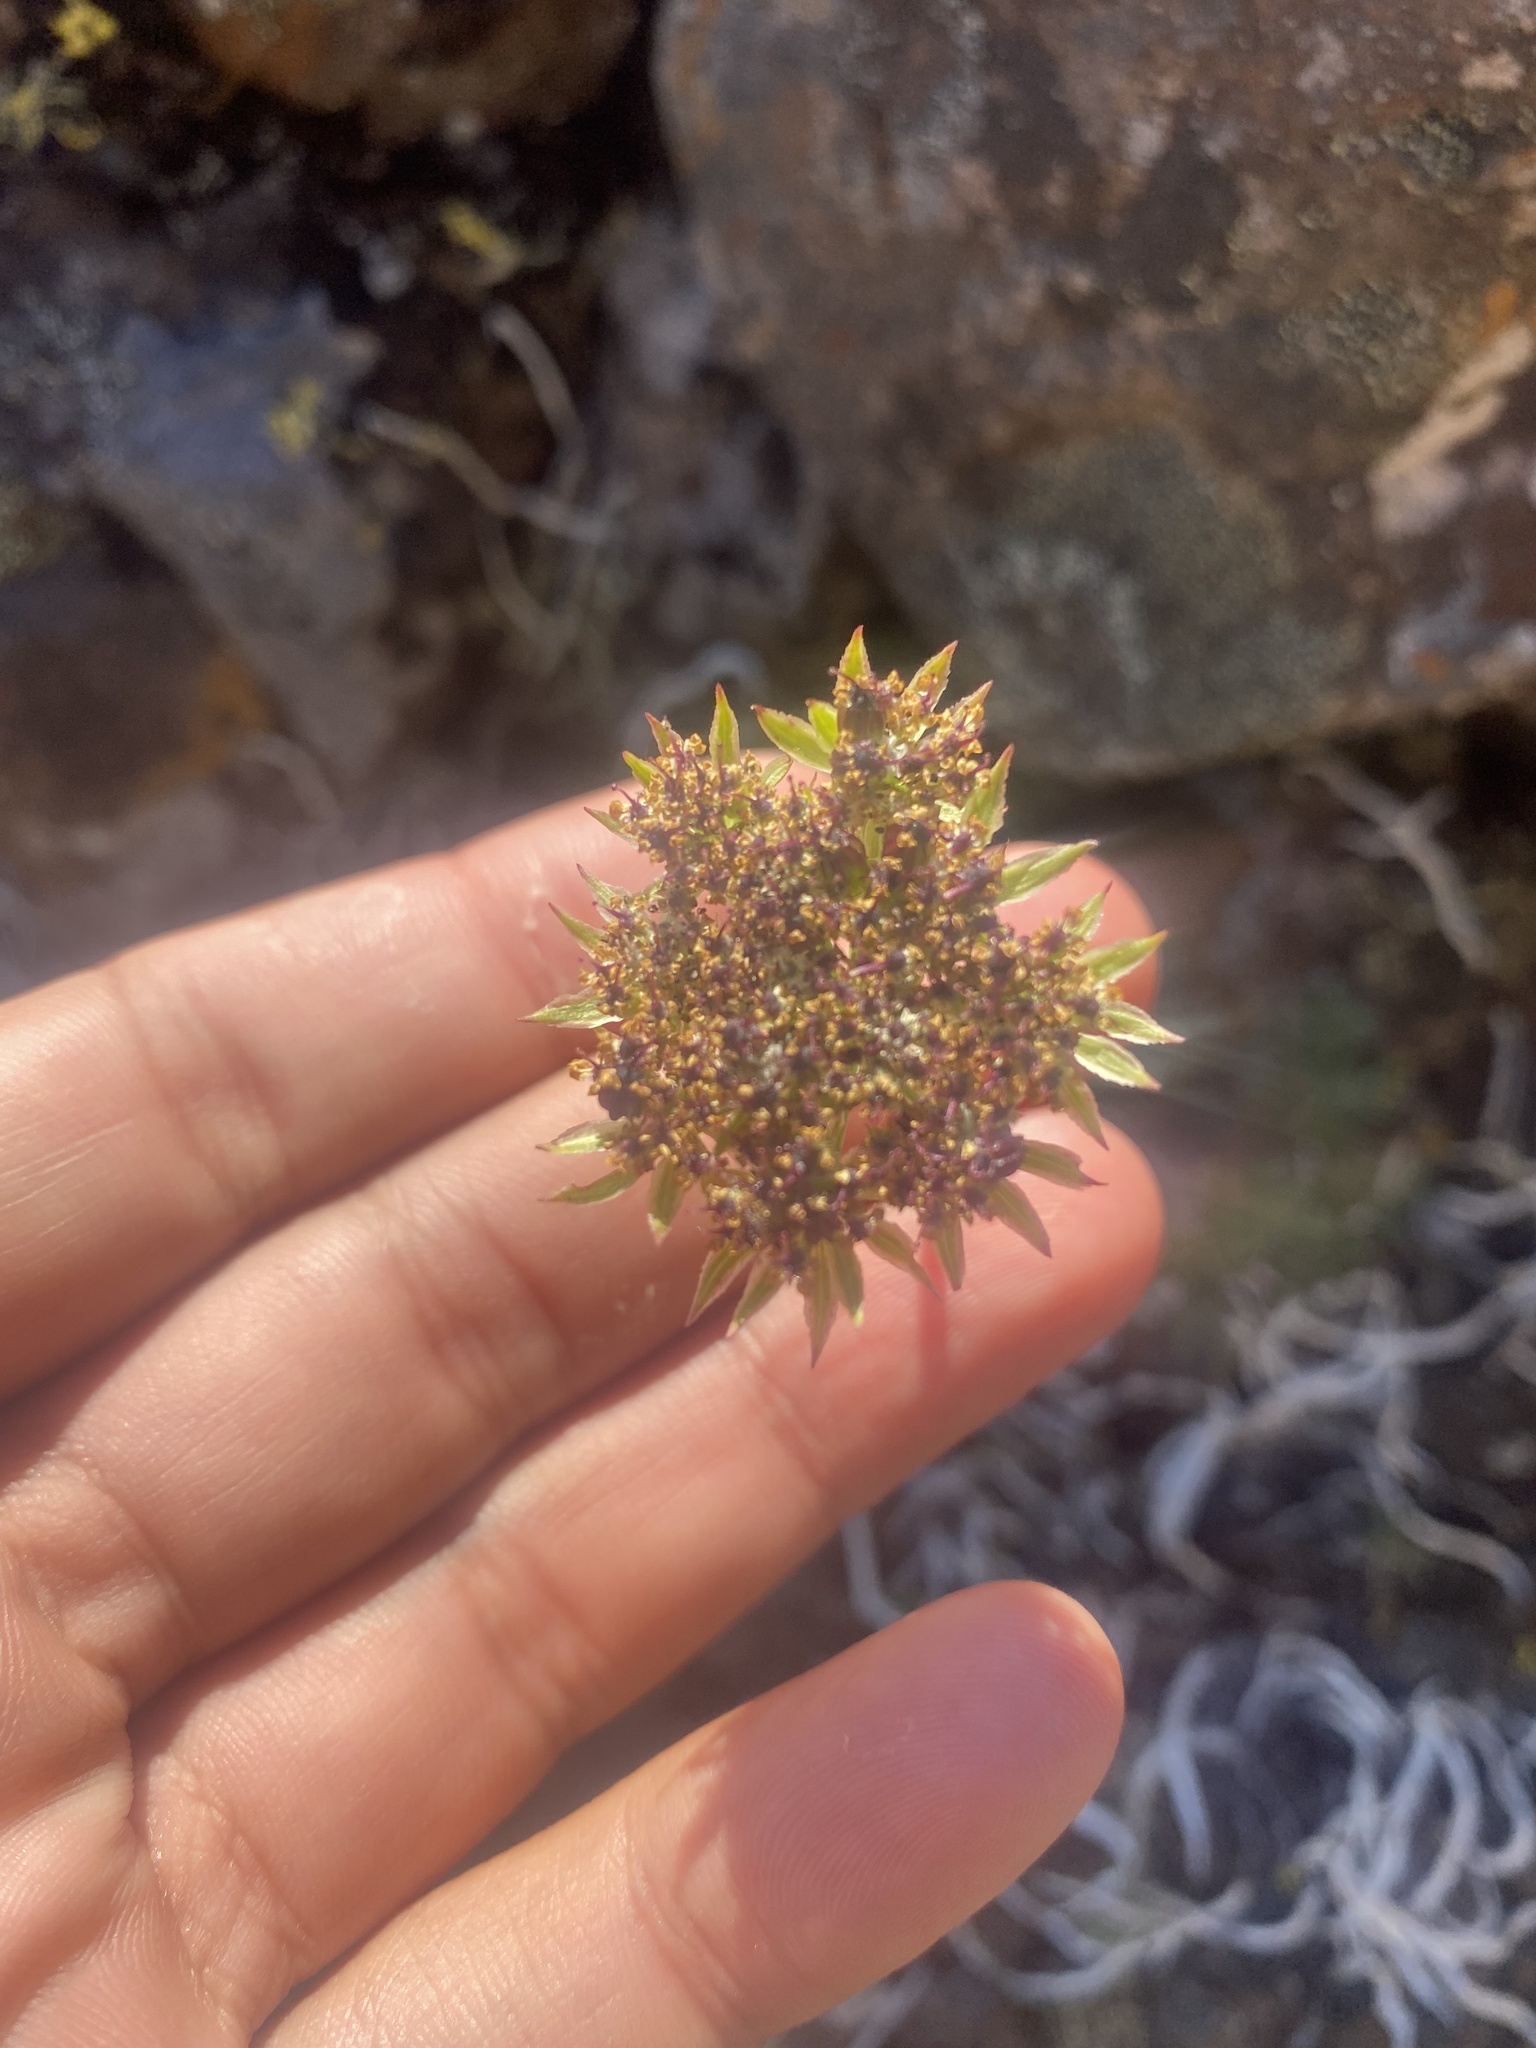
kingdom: Plantae
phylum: Tracheophyta
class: Magnoliopsida
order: Apiales
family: Apiaceae
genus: Pachypleurum
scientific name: Pachypleurum mutellinoides
